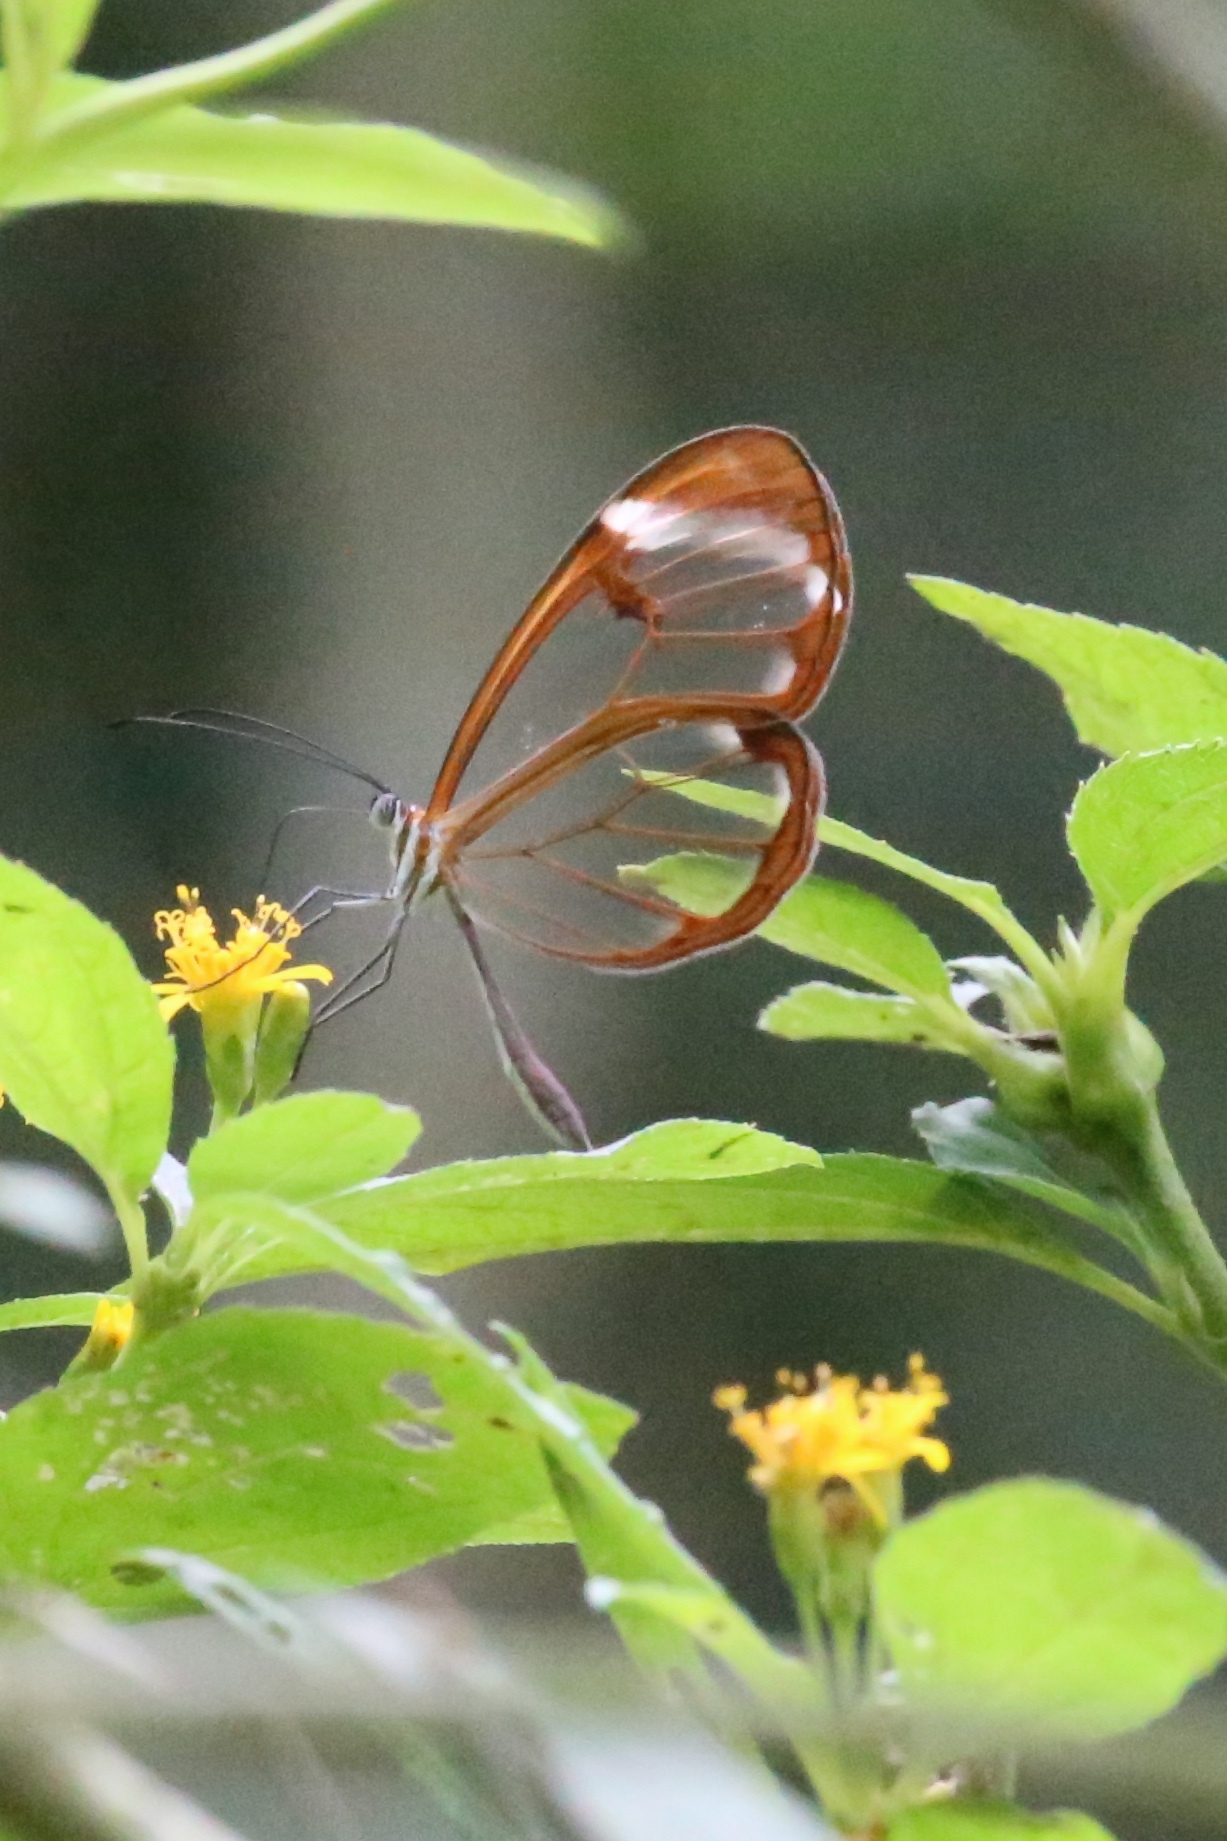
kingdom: Animalia
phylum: Arthropoda
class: Insecta
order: Lepidoptera
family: Nymphalidae
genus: Greta
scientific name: Greta morgane
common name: Thick-tipped greta
